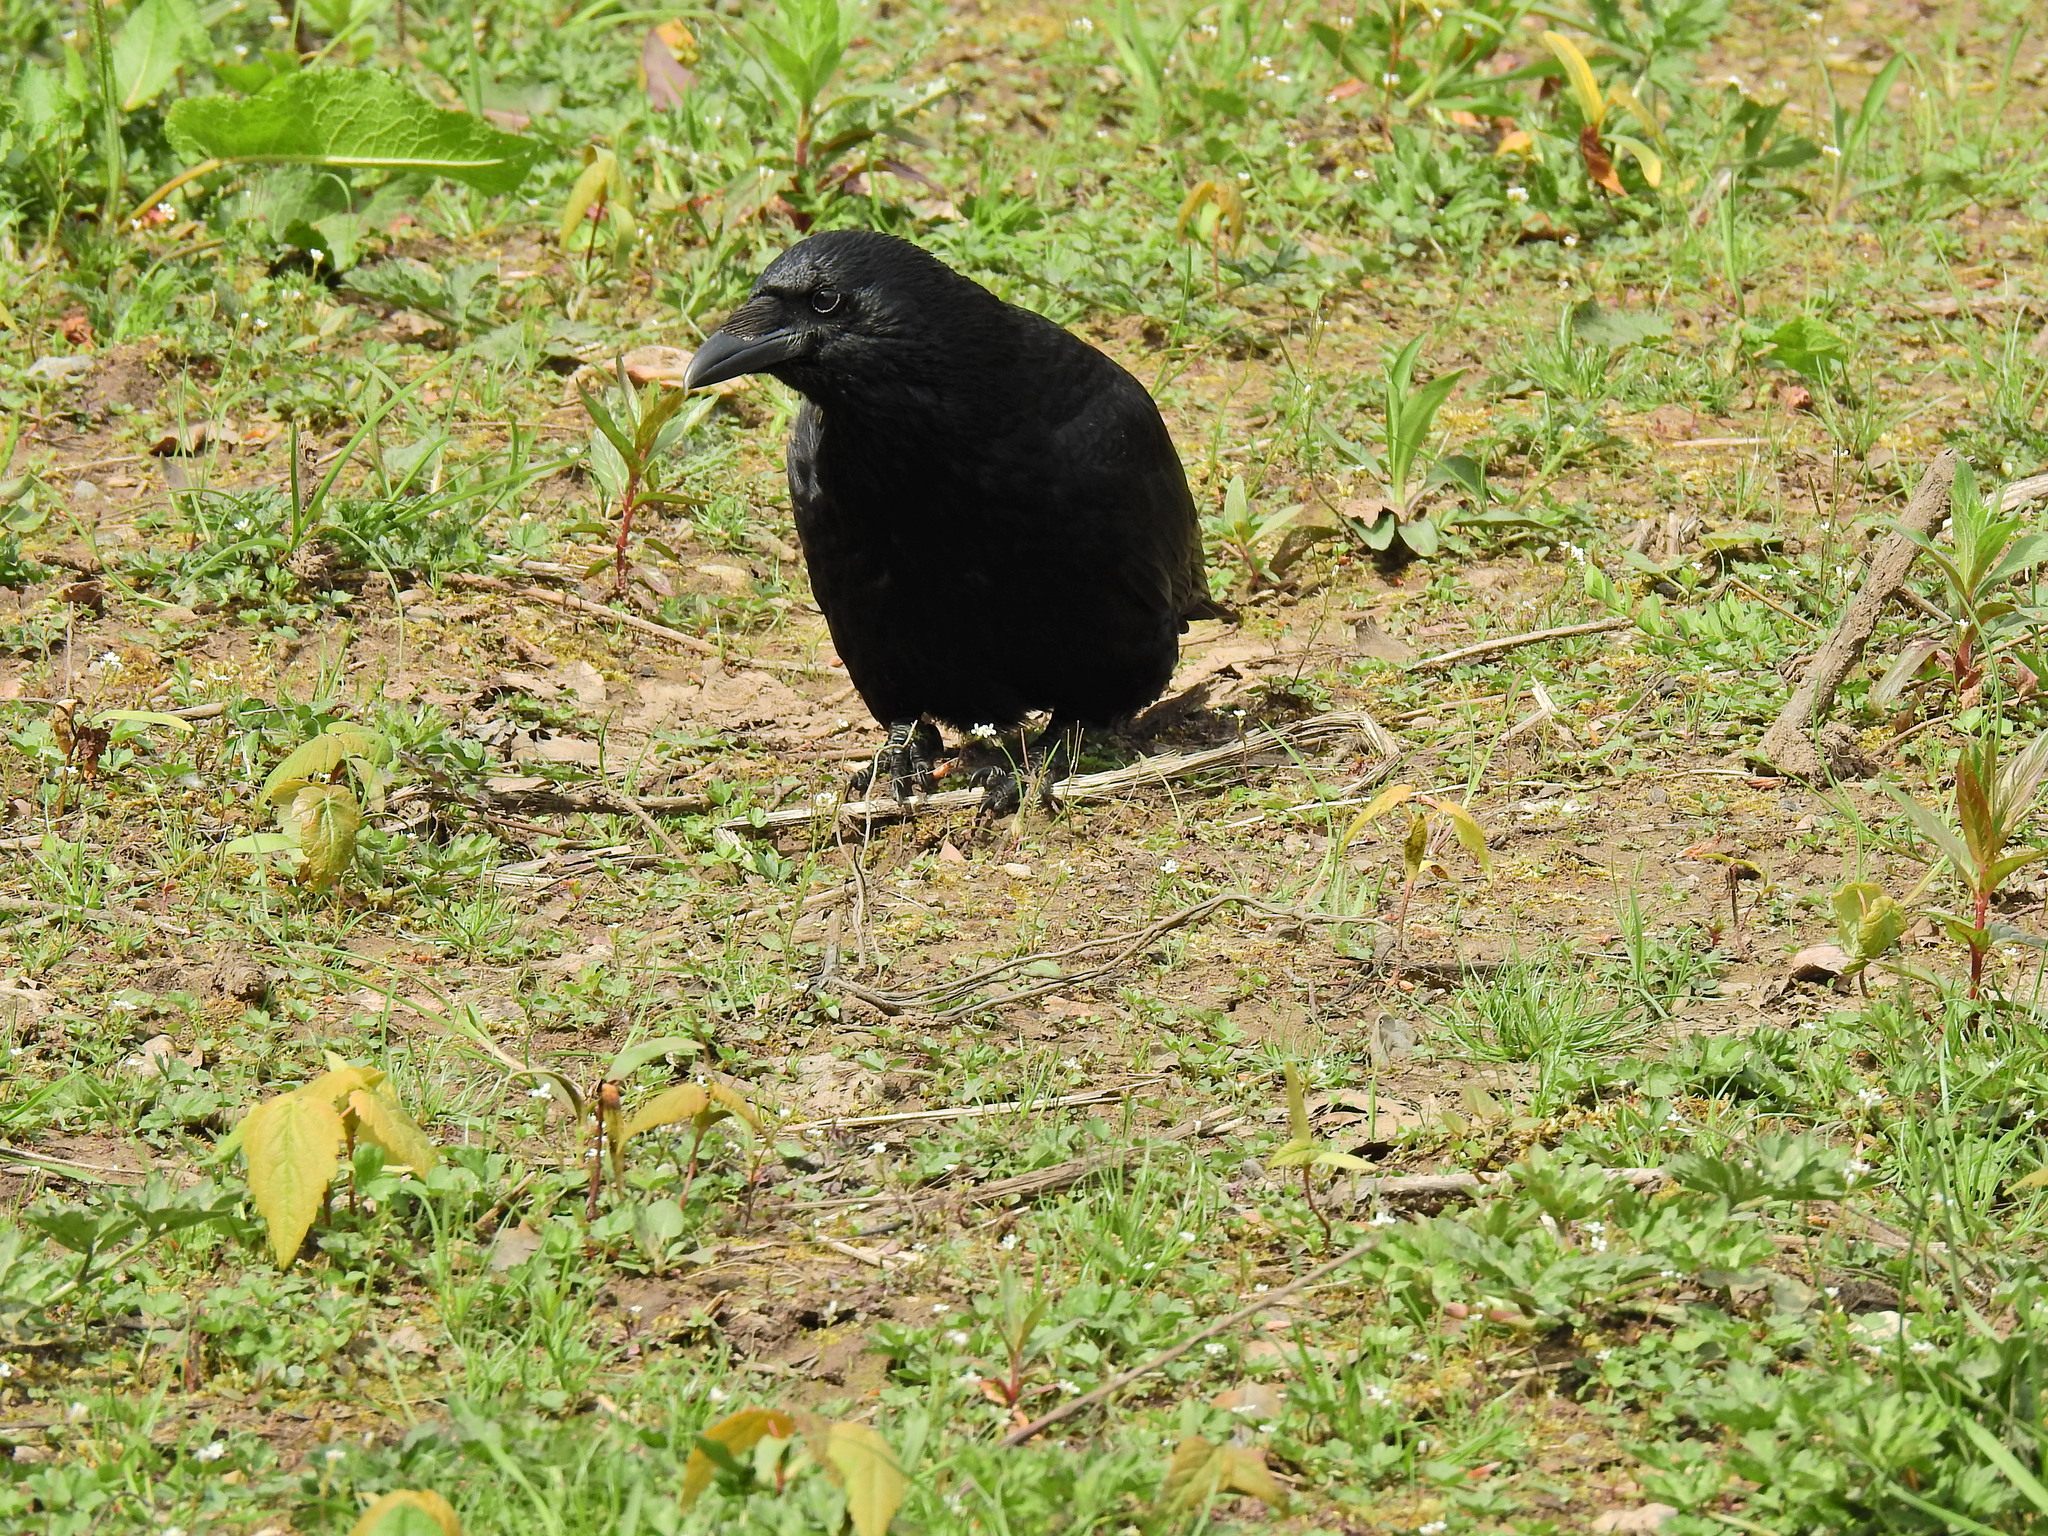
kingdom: Animalia
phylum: Chordata
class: Aves
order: Passeriformes
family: Corvidae
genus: Corvus
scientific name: Corvus corone
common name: Carrion crow
